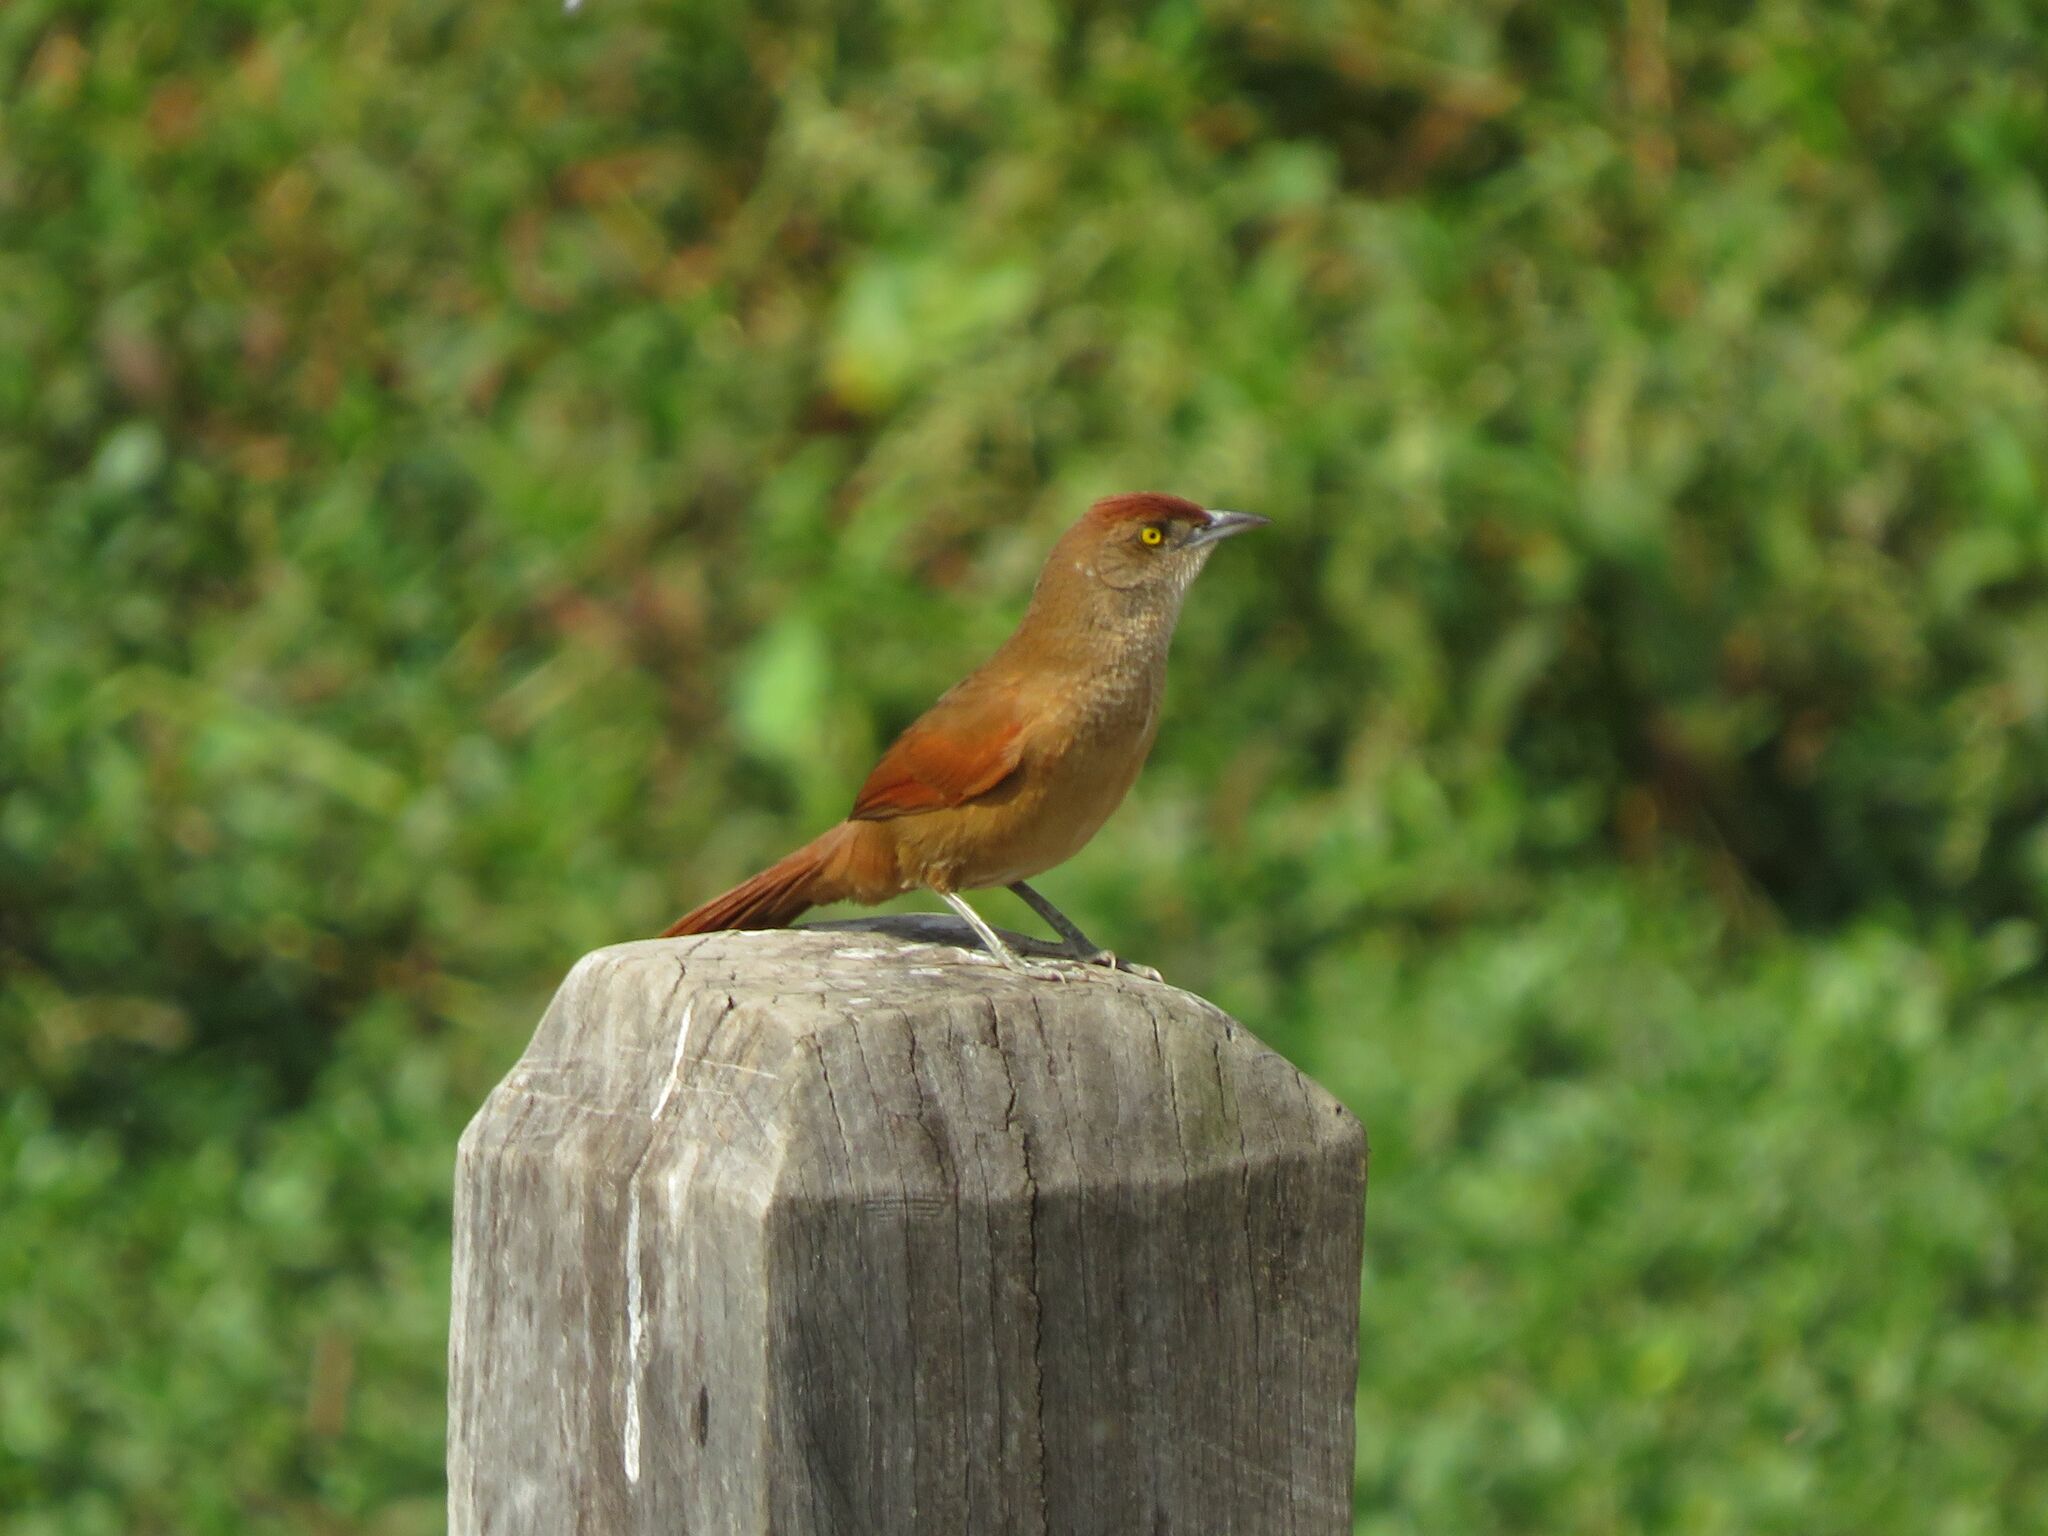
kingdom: Animalia
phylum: Chordata
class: Aves
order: Passeriformes
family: Furnariidae
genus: Phacellodomus
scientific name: Phacellodomus ruber
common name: Greater thornbird
